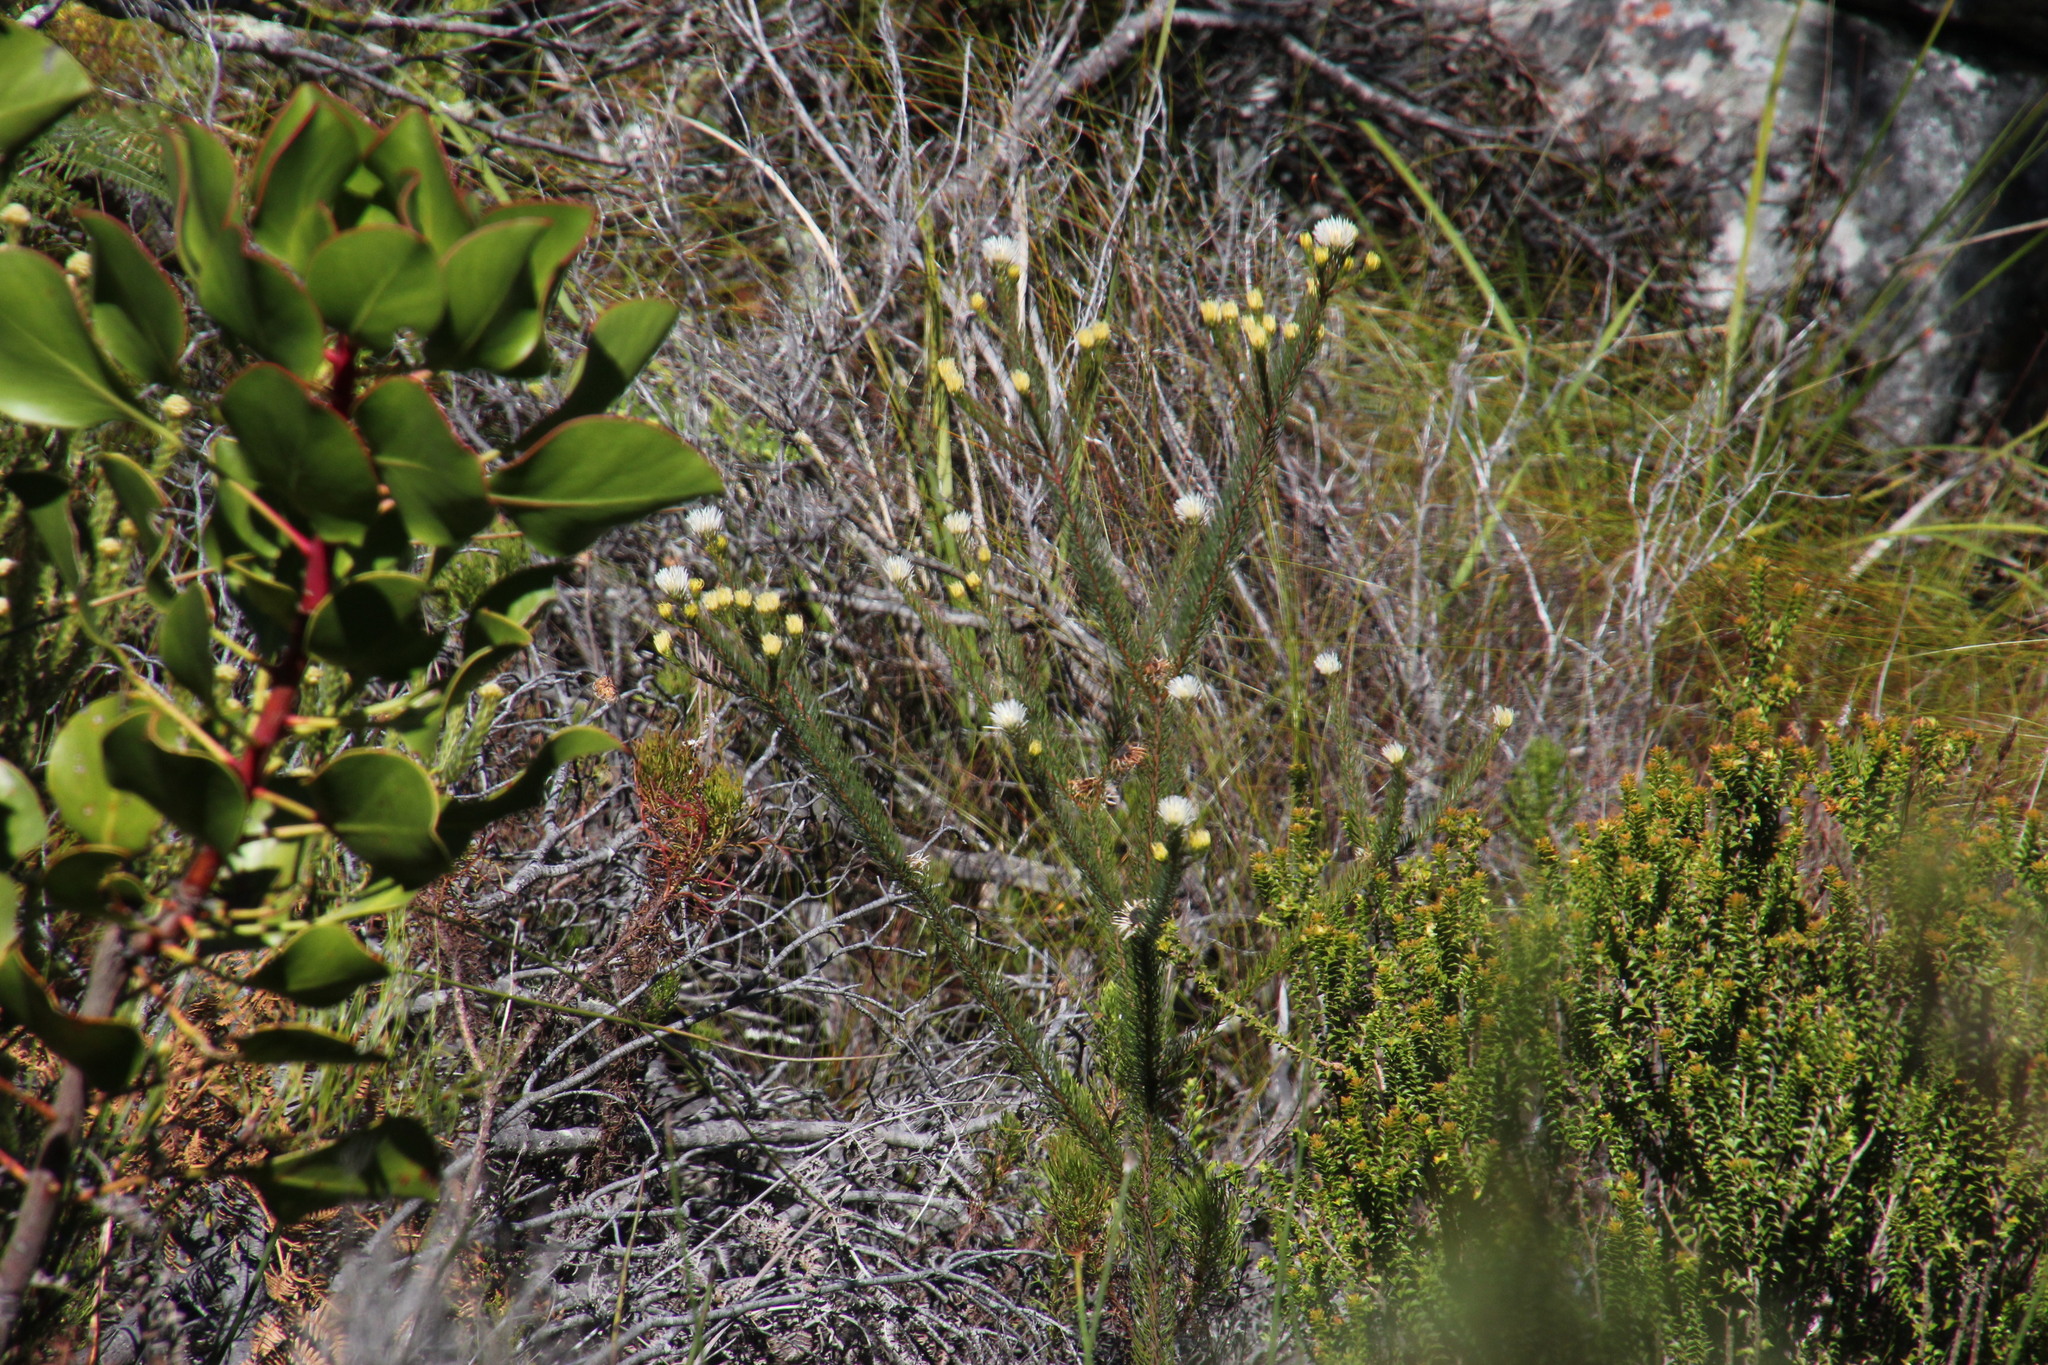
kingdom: Plantae
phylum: Tracheophyta
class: Magnoliopsida
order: Bruniales
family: Bruniaceae
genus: Staavia
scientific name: Staavia glutinosa
